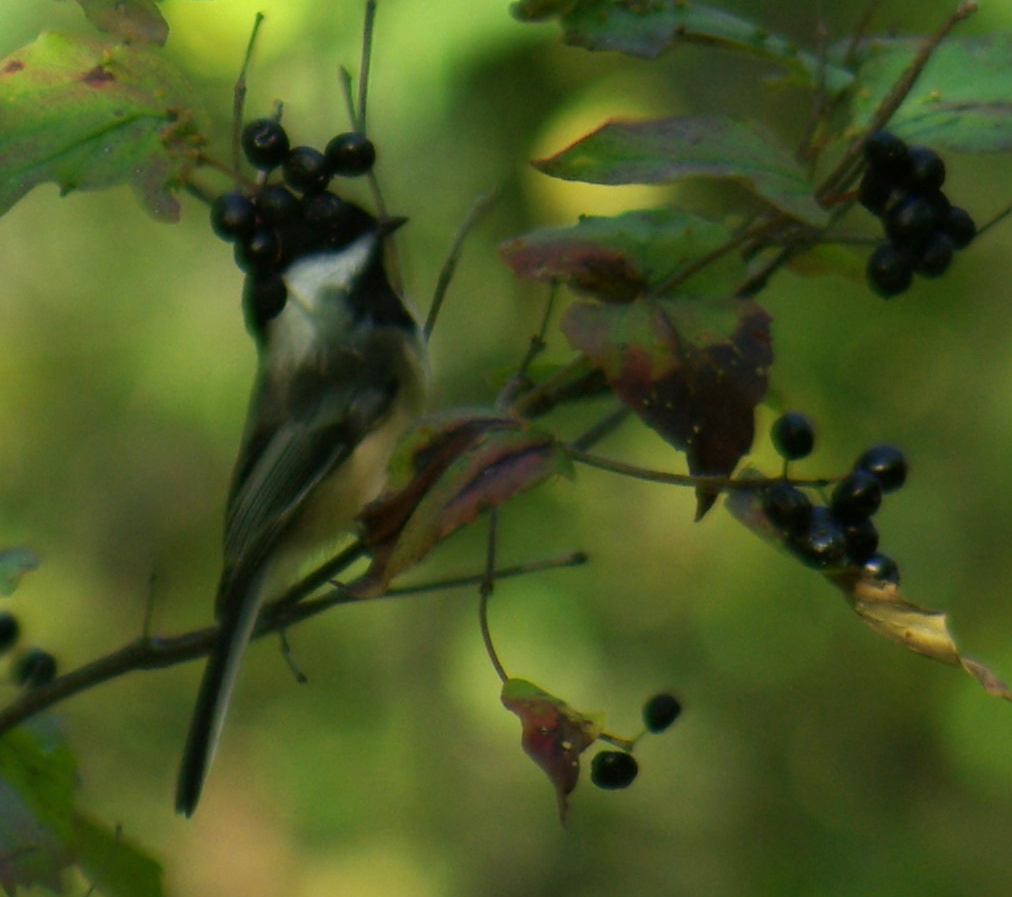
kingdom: Animalia
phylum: Chordata
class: Aves
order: Passeriformes
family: Paridae
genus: Poecile
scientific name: Poecile atricapillus
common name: Black-capped chickadee
